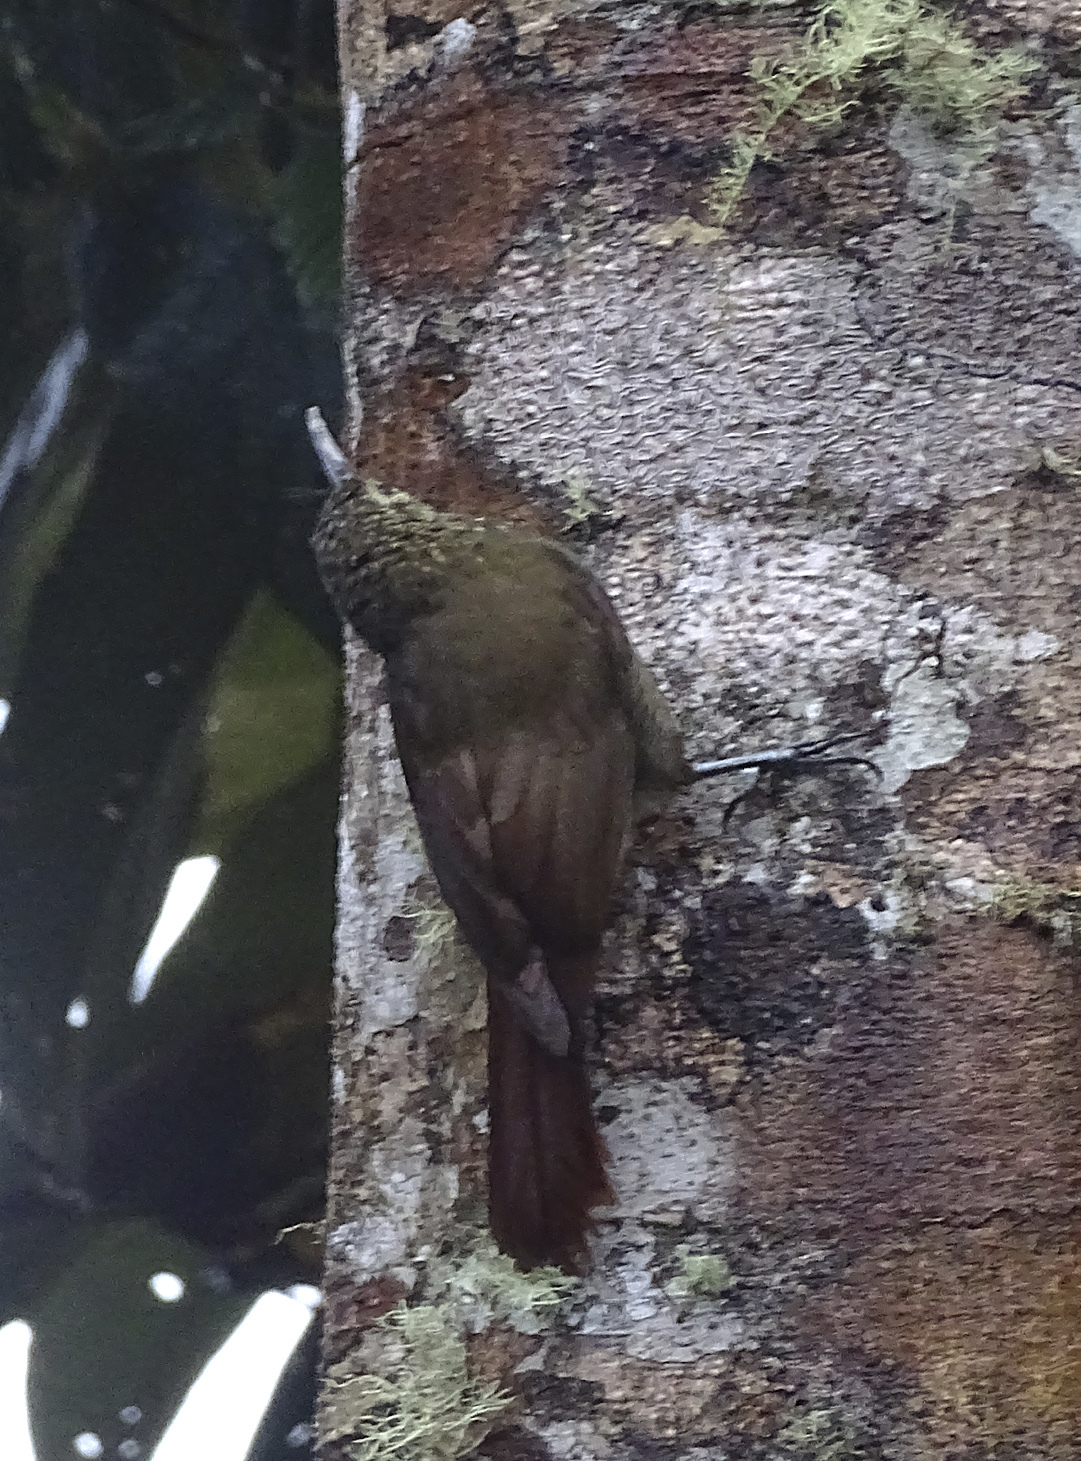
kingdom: Animalia
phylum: Chordata
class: Aves
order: Passeriformes
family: Furnariidae
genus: Lepidocolaptes
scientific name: Lepidocolaptes lacrymiger
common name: Montane woodcreeper
